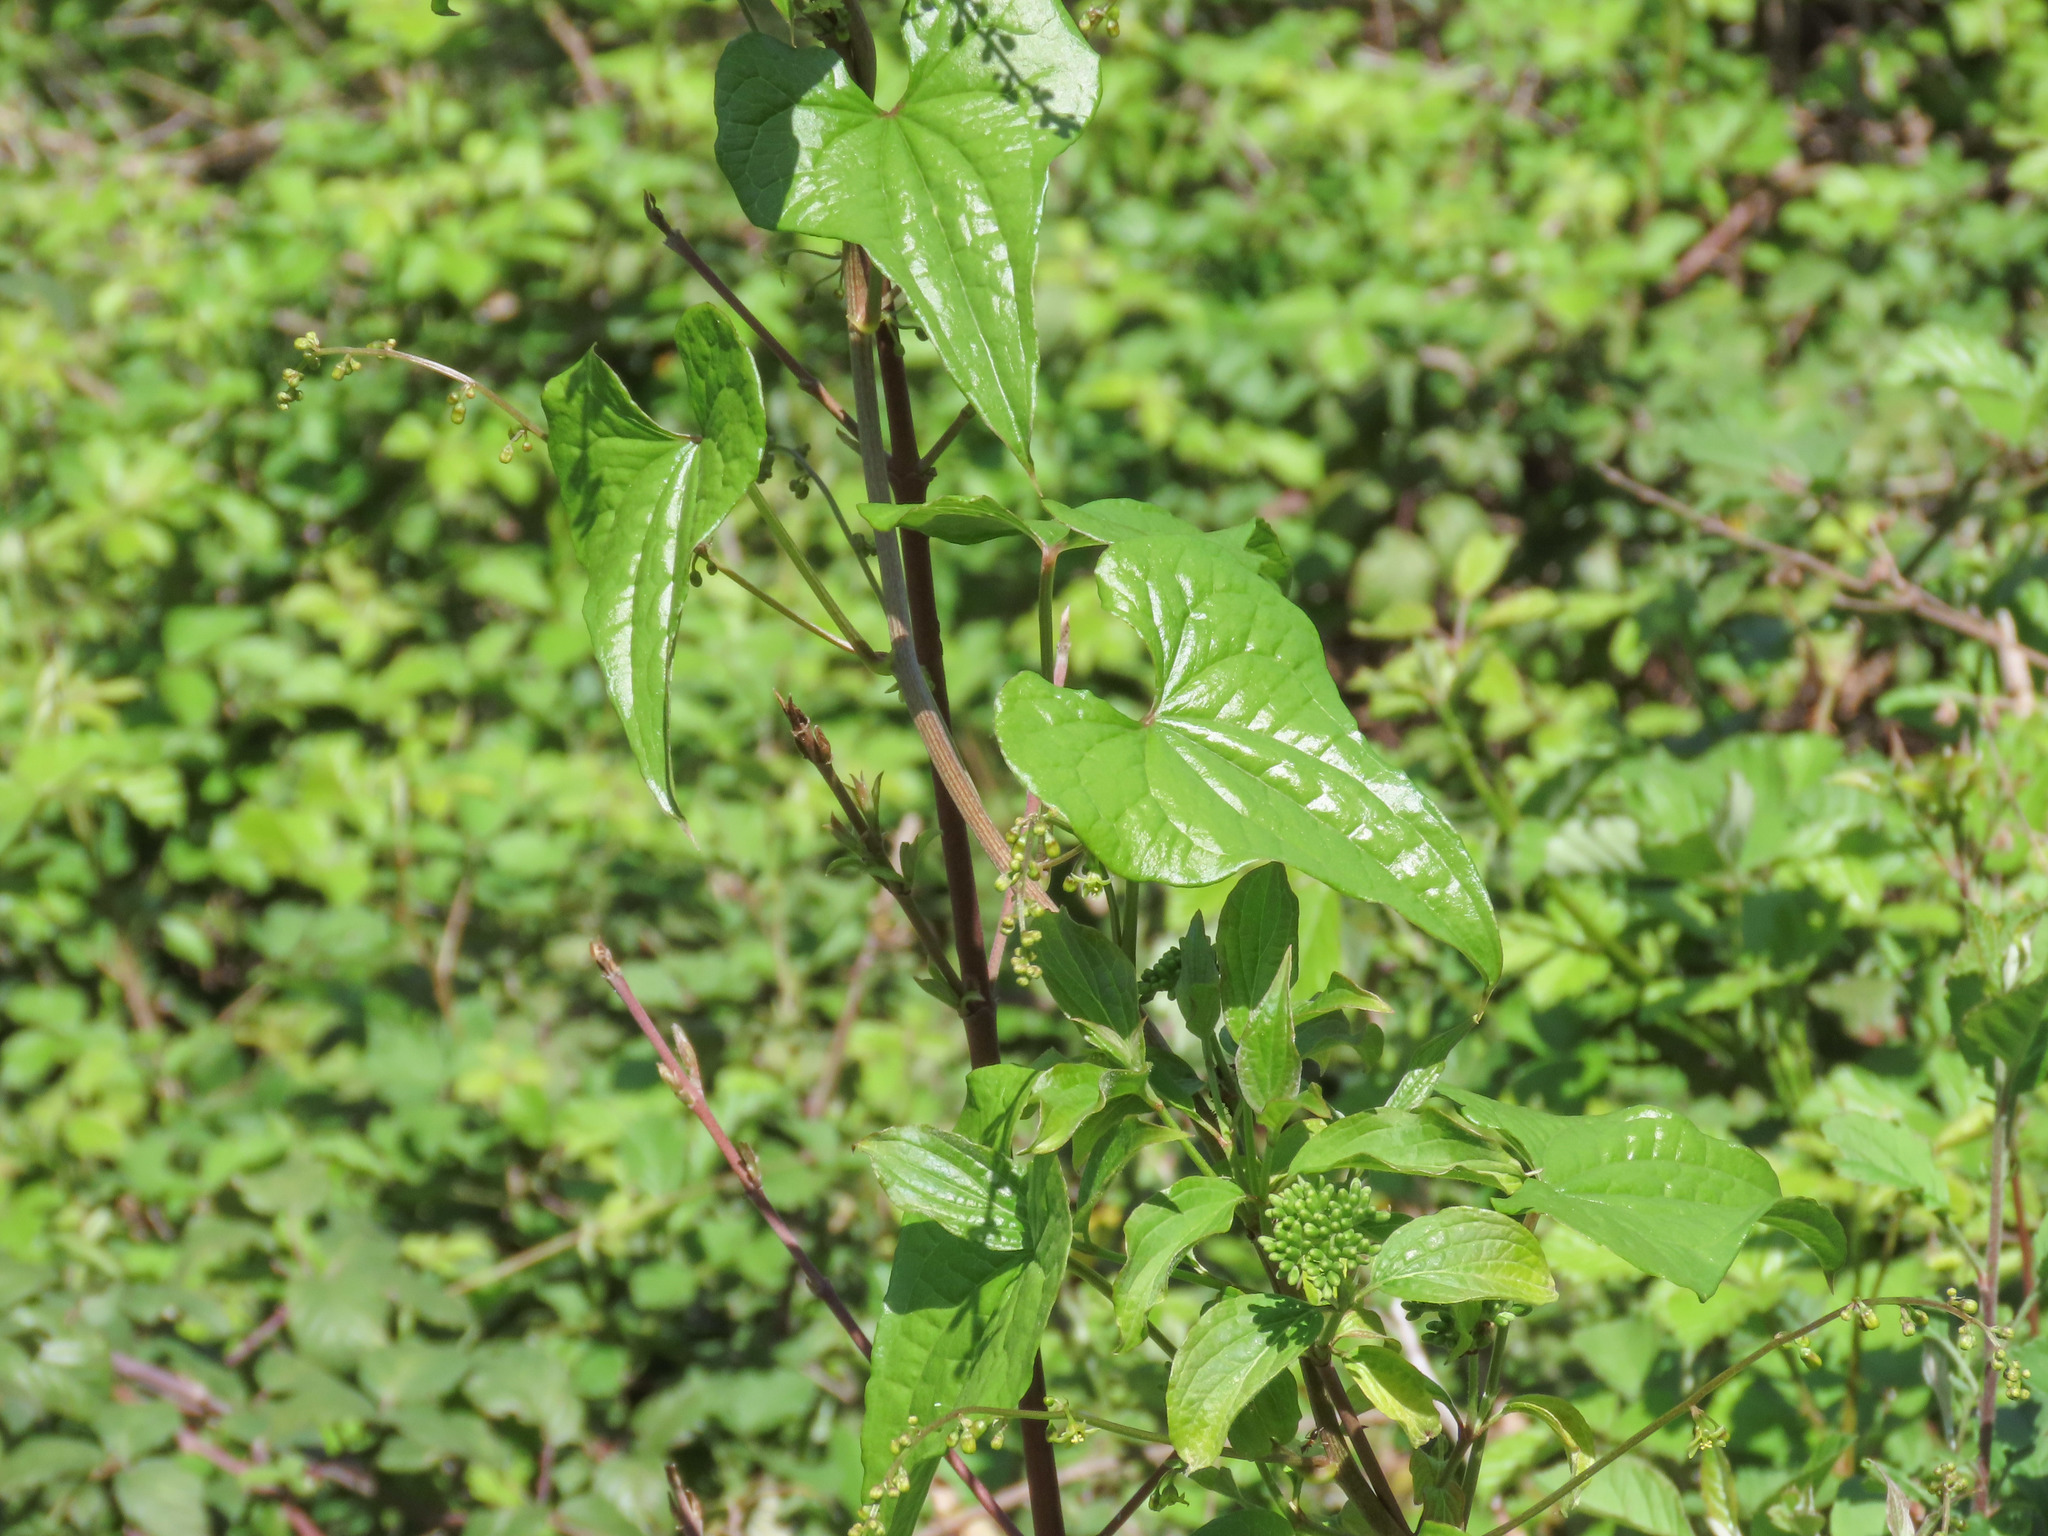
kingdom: Plantae
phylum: Tracheophyta
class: Liliopsida
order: Dioscoreales
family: Dioscoreaceae
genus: Dioscorea
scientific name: Dioscorea communis
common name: Black-bindweed
